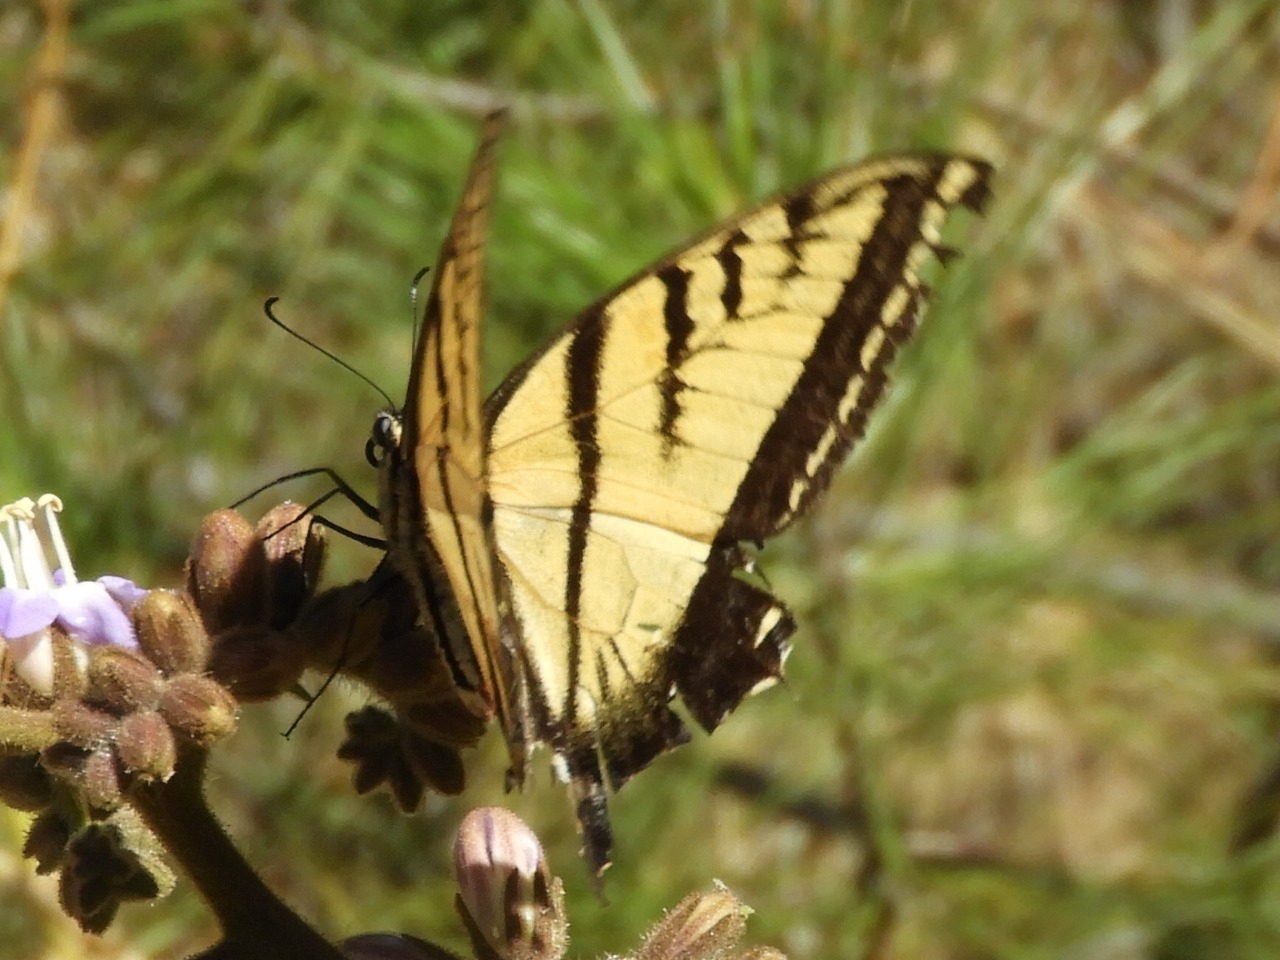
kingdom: Animalia
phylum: Arthropoda
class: Insecta
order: Lepidoptera
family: Papilionidae
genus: Papilio
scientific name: Papilio multicaudata
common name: Two-tailed tiger swallowtail
